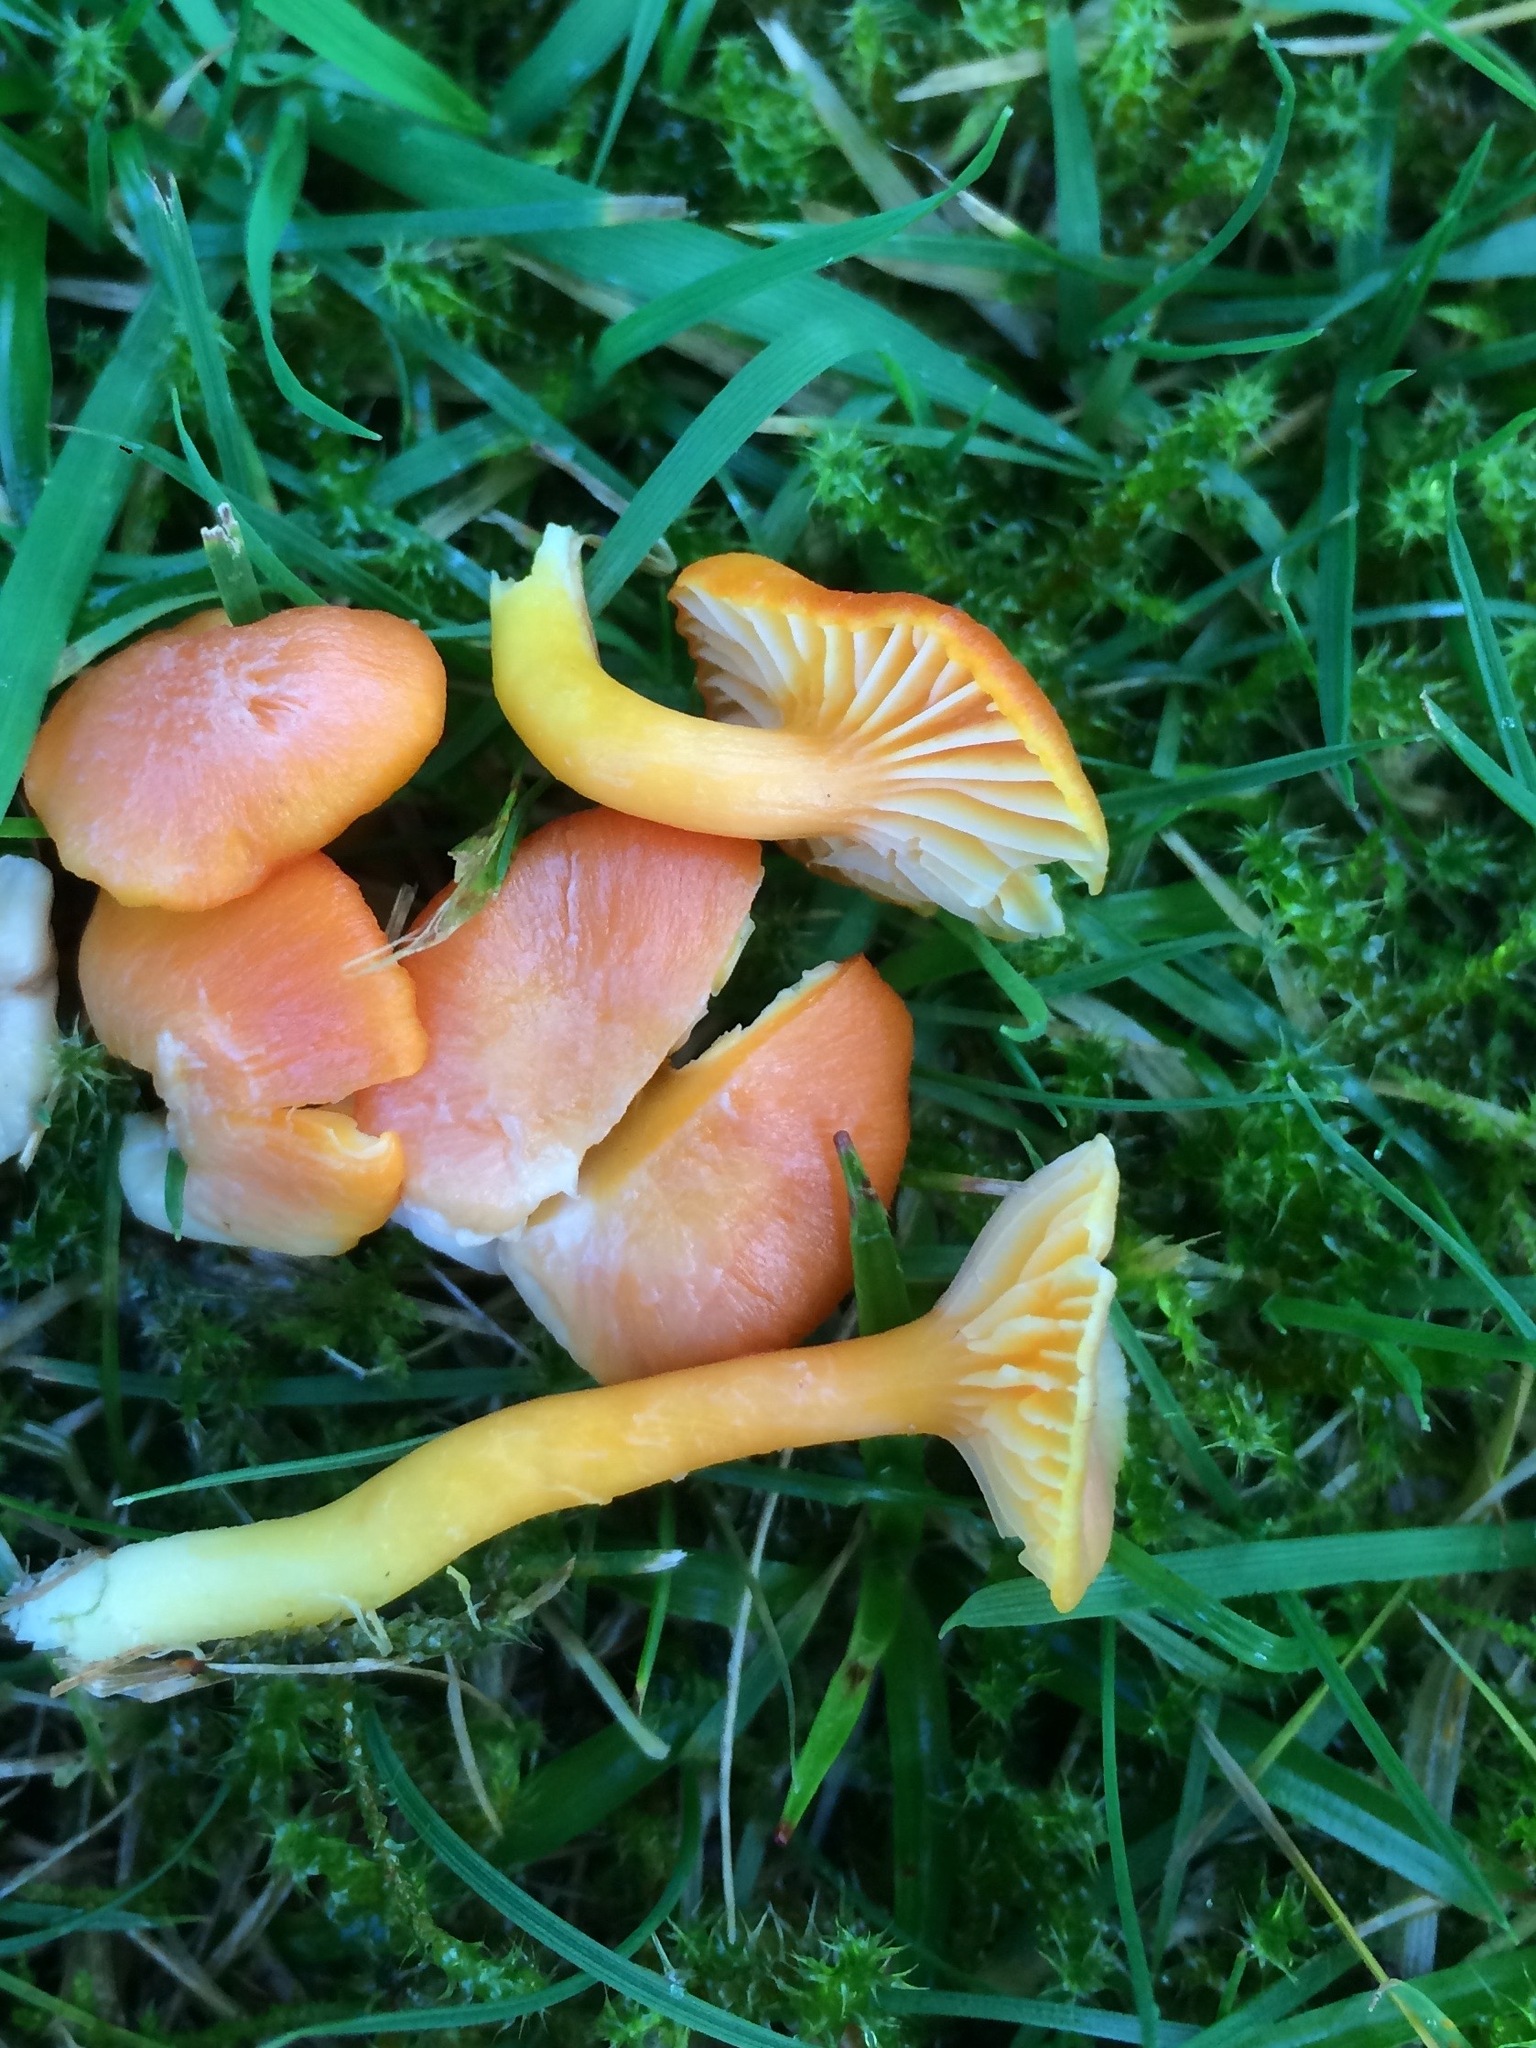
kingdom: Fungi
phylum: Basidiomycota
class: Agaricomycetes
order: Agaricales
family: Hygrophoraceae
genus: Hygrocybe
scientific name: Hygrocybe reidii
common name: Honey waxcap
